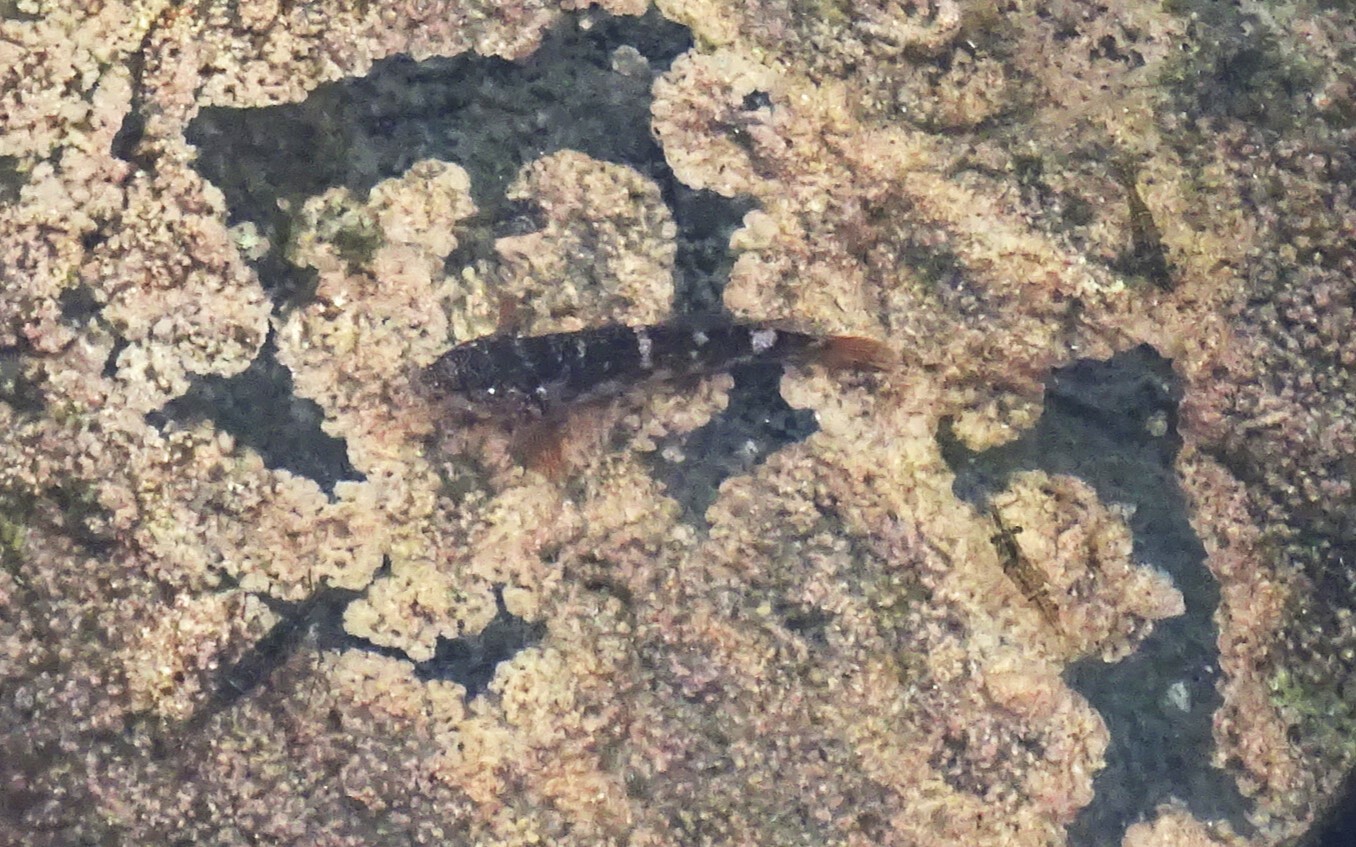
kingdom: Animalia
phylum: Chordata
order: Perciformes
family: Gobiidae
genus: Mauligobius
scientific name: Mauligobius maderensis
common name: Rock goby
